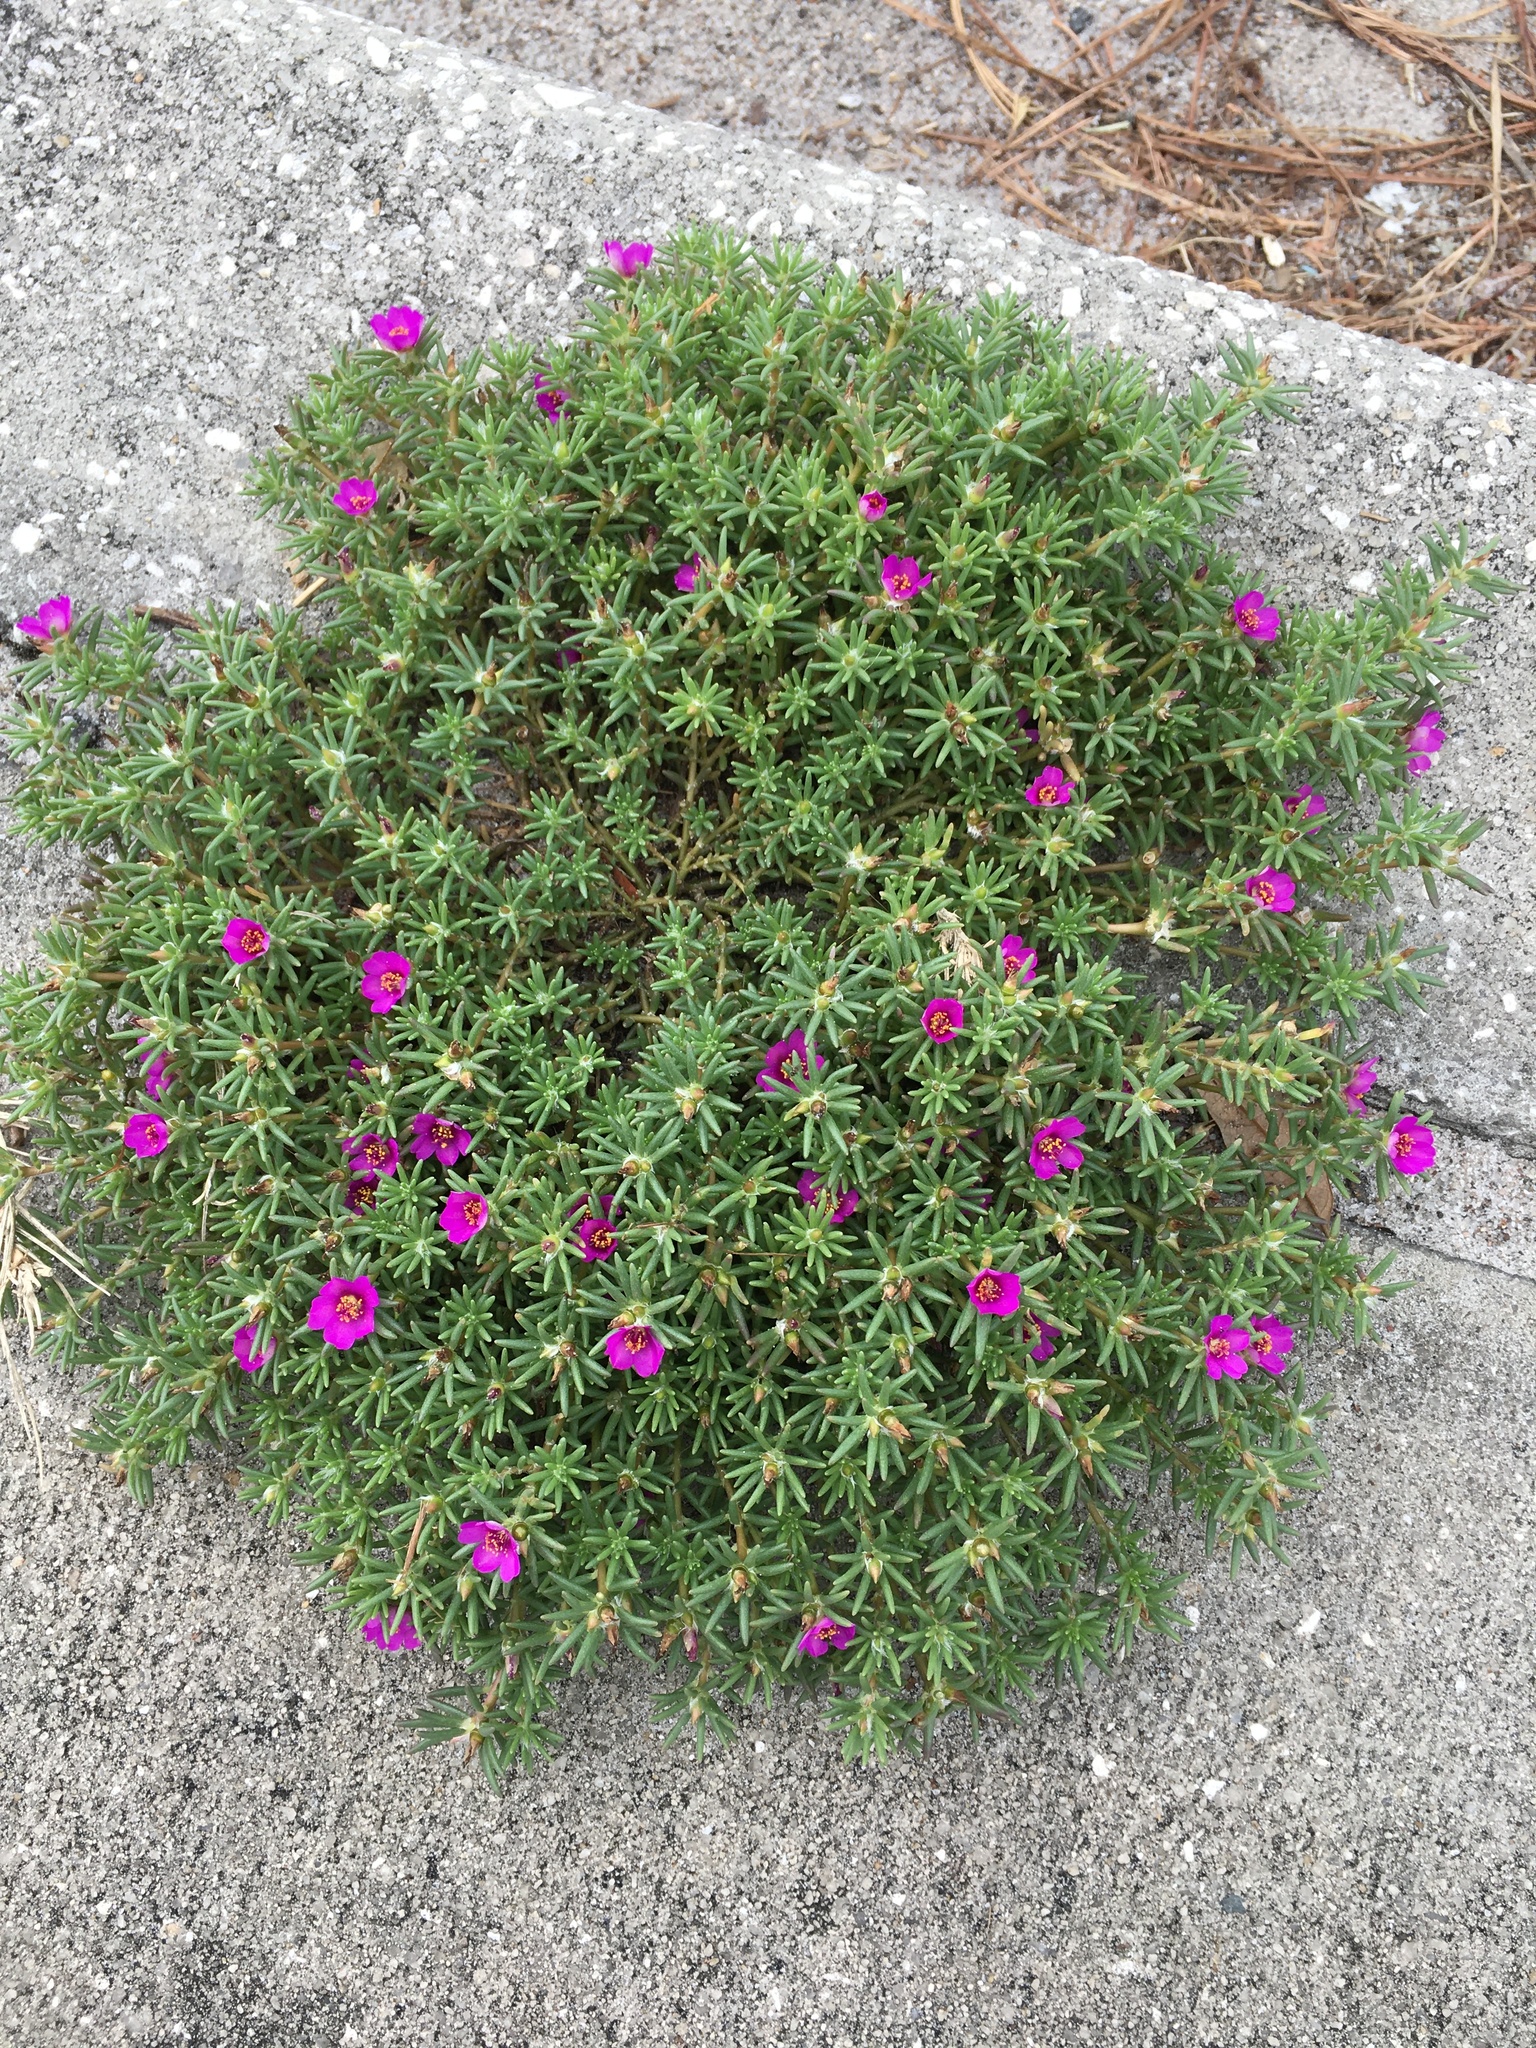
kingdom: Plantae
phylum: Tracheophyta
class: Magnoliopsida
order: Caryophyllales
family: Portulacaceae
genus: Portulaca
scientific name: Portulaca pilosa
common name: Kiss me quick
